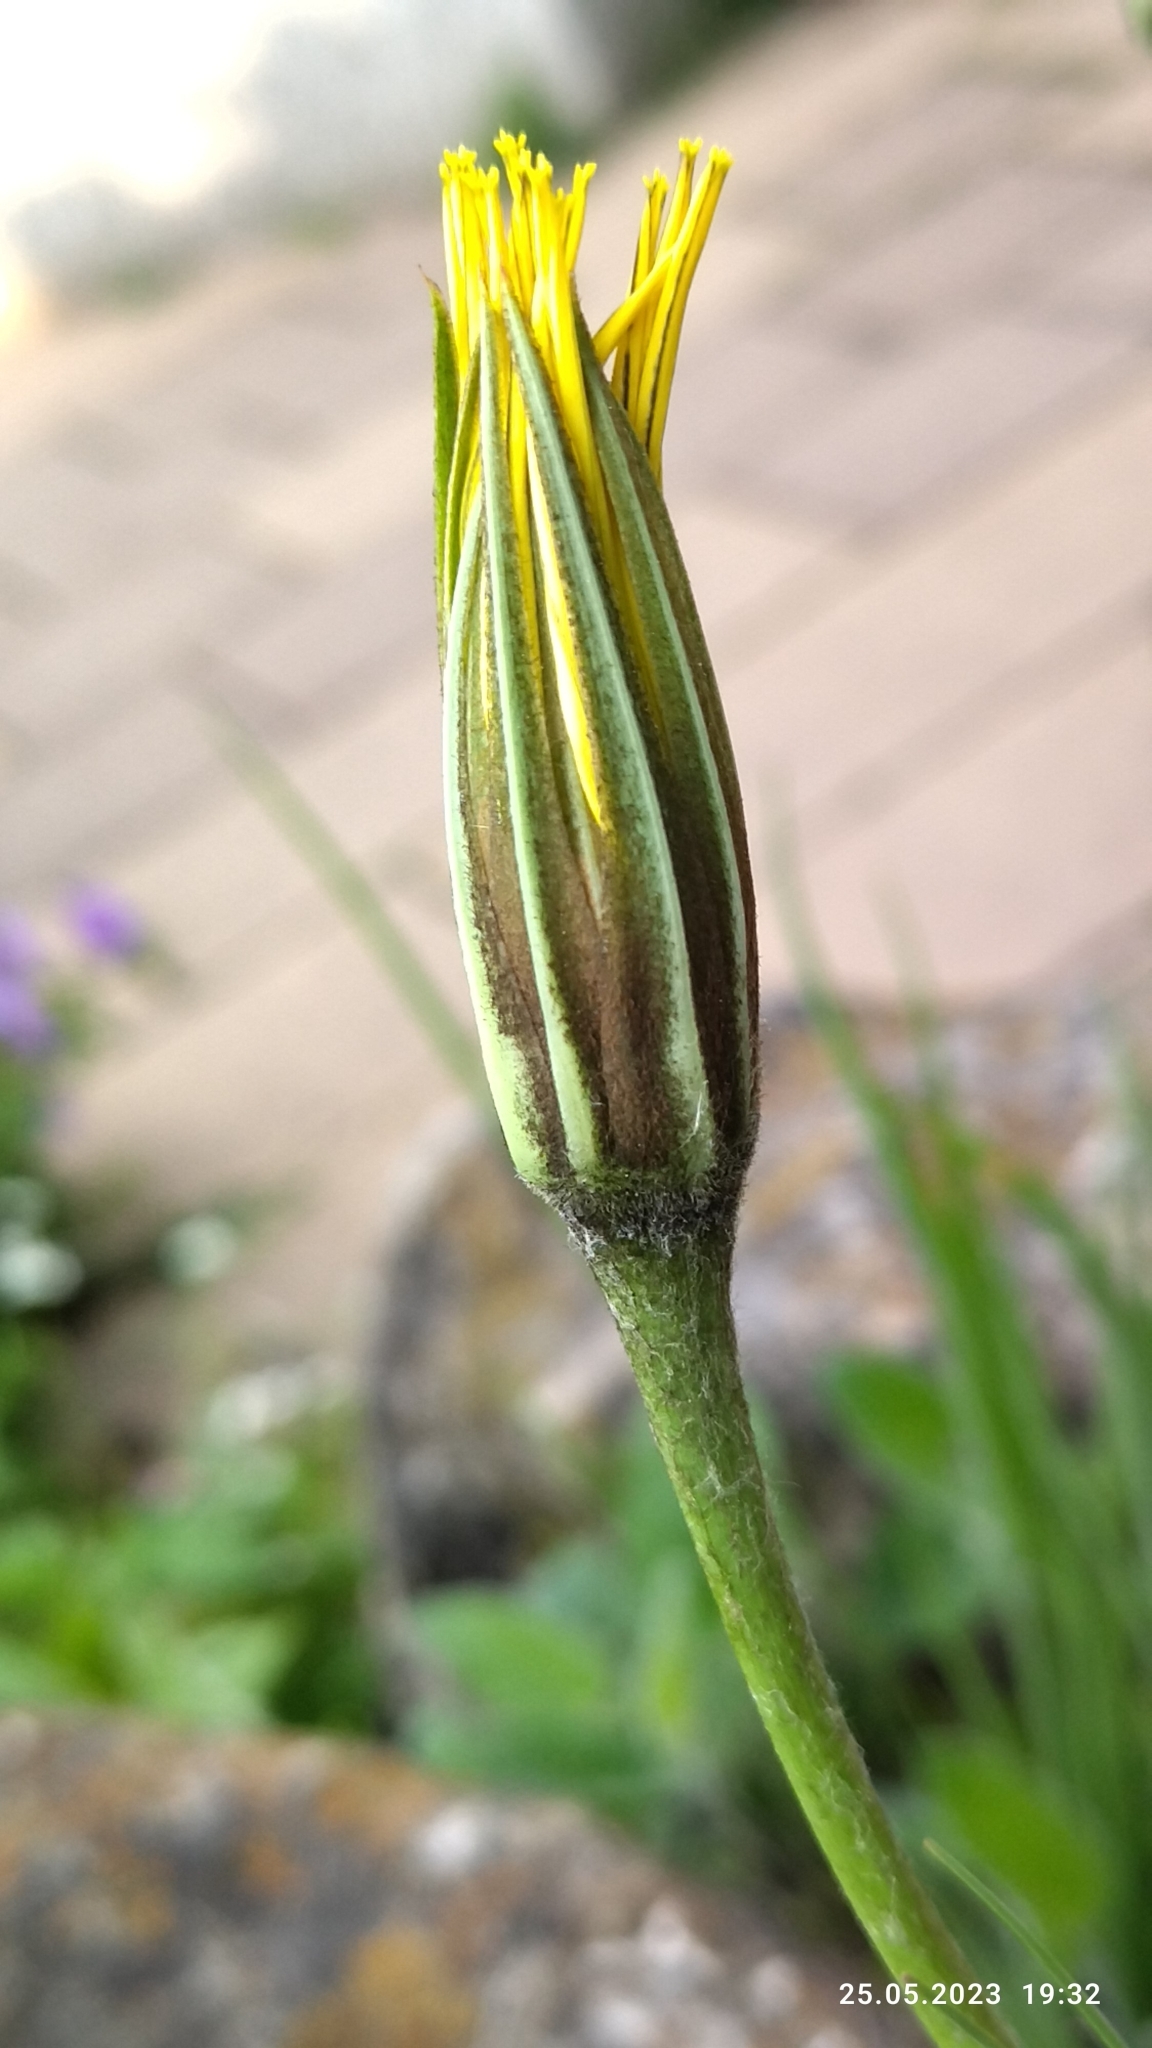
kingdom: Plantae
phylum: Tracheophyta
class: Magnoliopsida
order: Asterales
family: Asteraceae
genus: Tragopogon
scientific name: Tragopogon pratensis
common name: Goat's-beard
